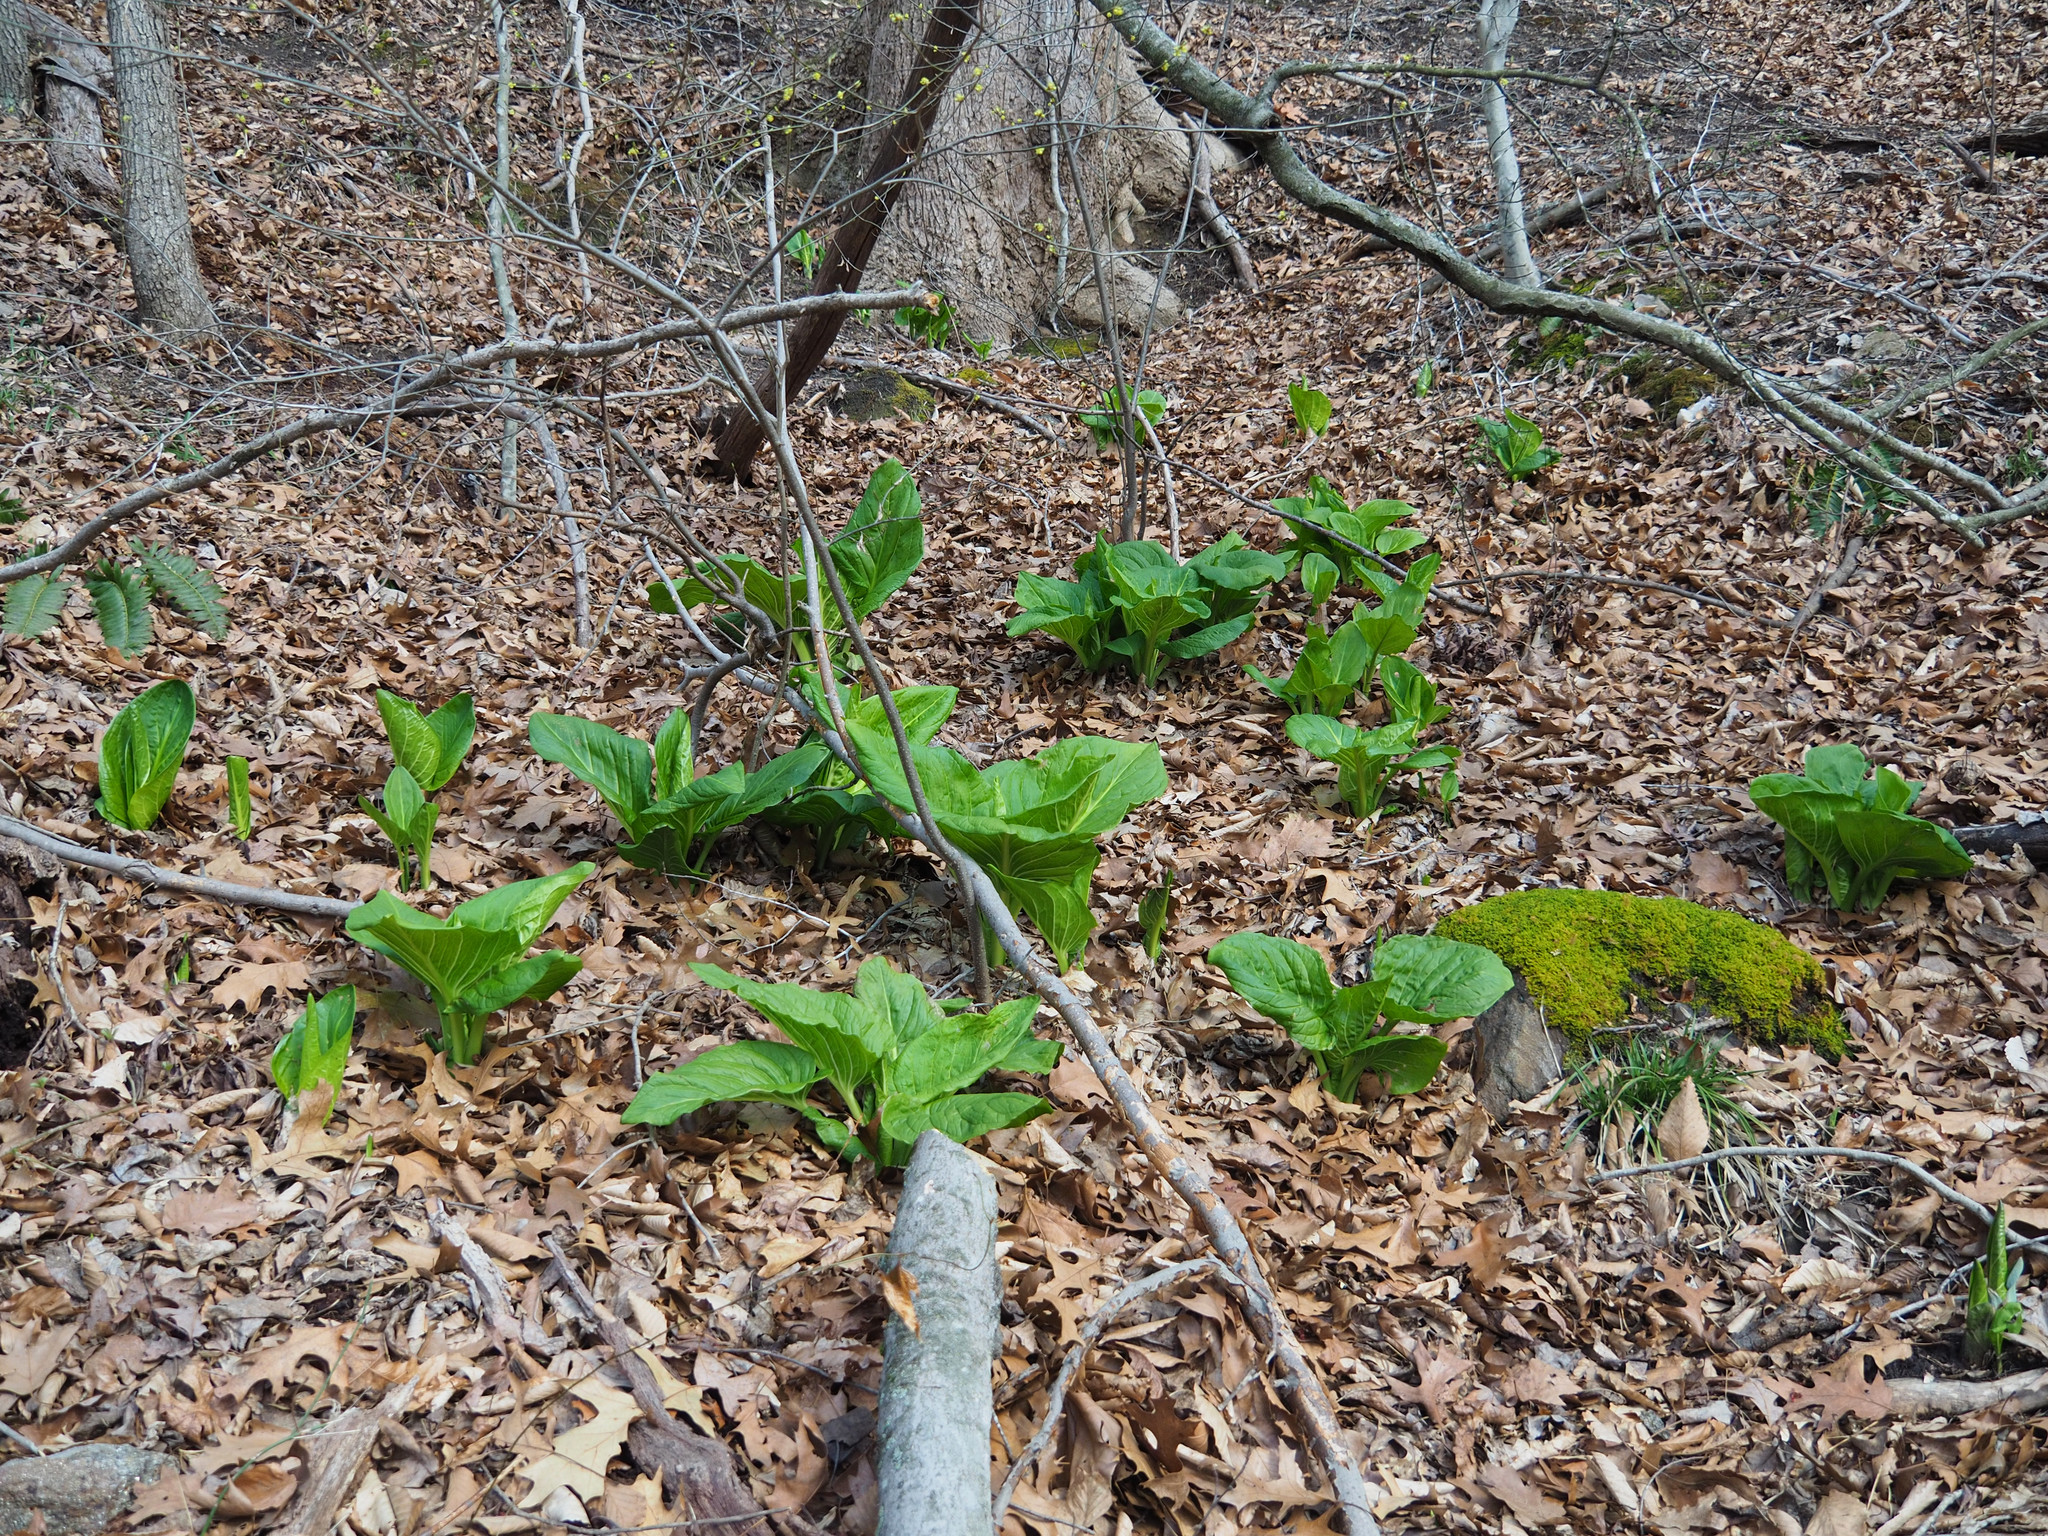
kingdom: Plantae
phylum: Tracheophyta
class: Liliopsida
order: Alismatales
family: Araceae
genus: Symplocarpus
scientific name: Symplocarpus foetidus
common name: Eastern skunk cabbage
